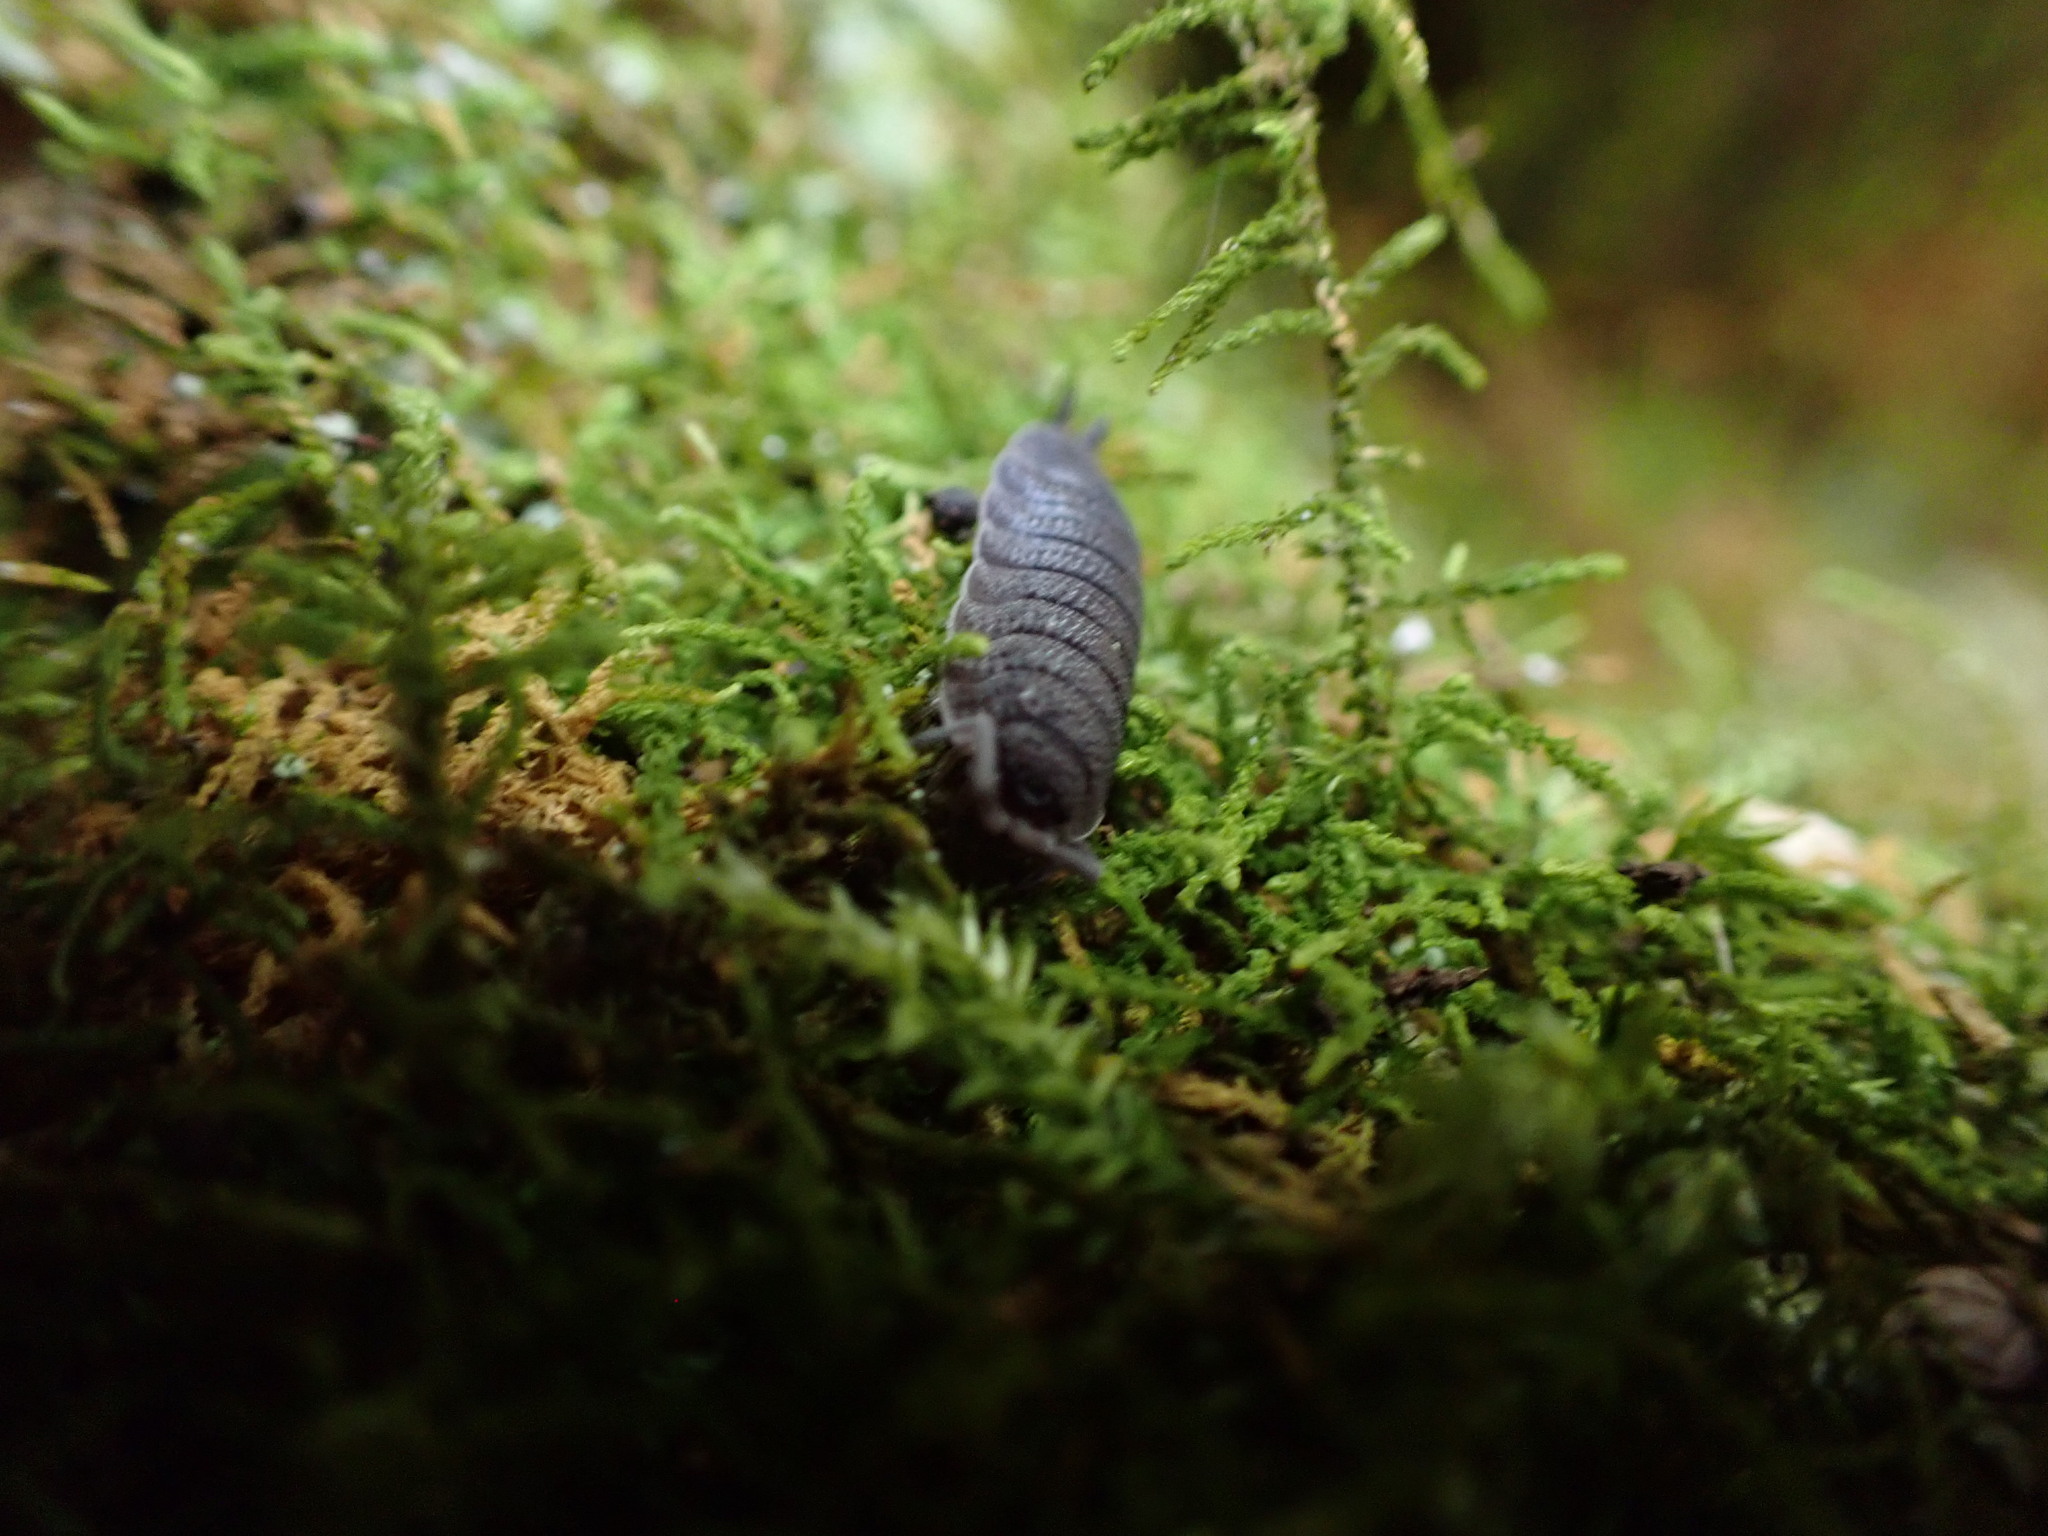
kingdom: Animalia
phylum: Arthropoda
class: Malacostraca
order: Isopoda
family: Porcellionidae
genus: Porcellio
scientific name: Porcellio scaber
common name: Common rough woodlouse
